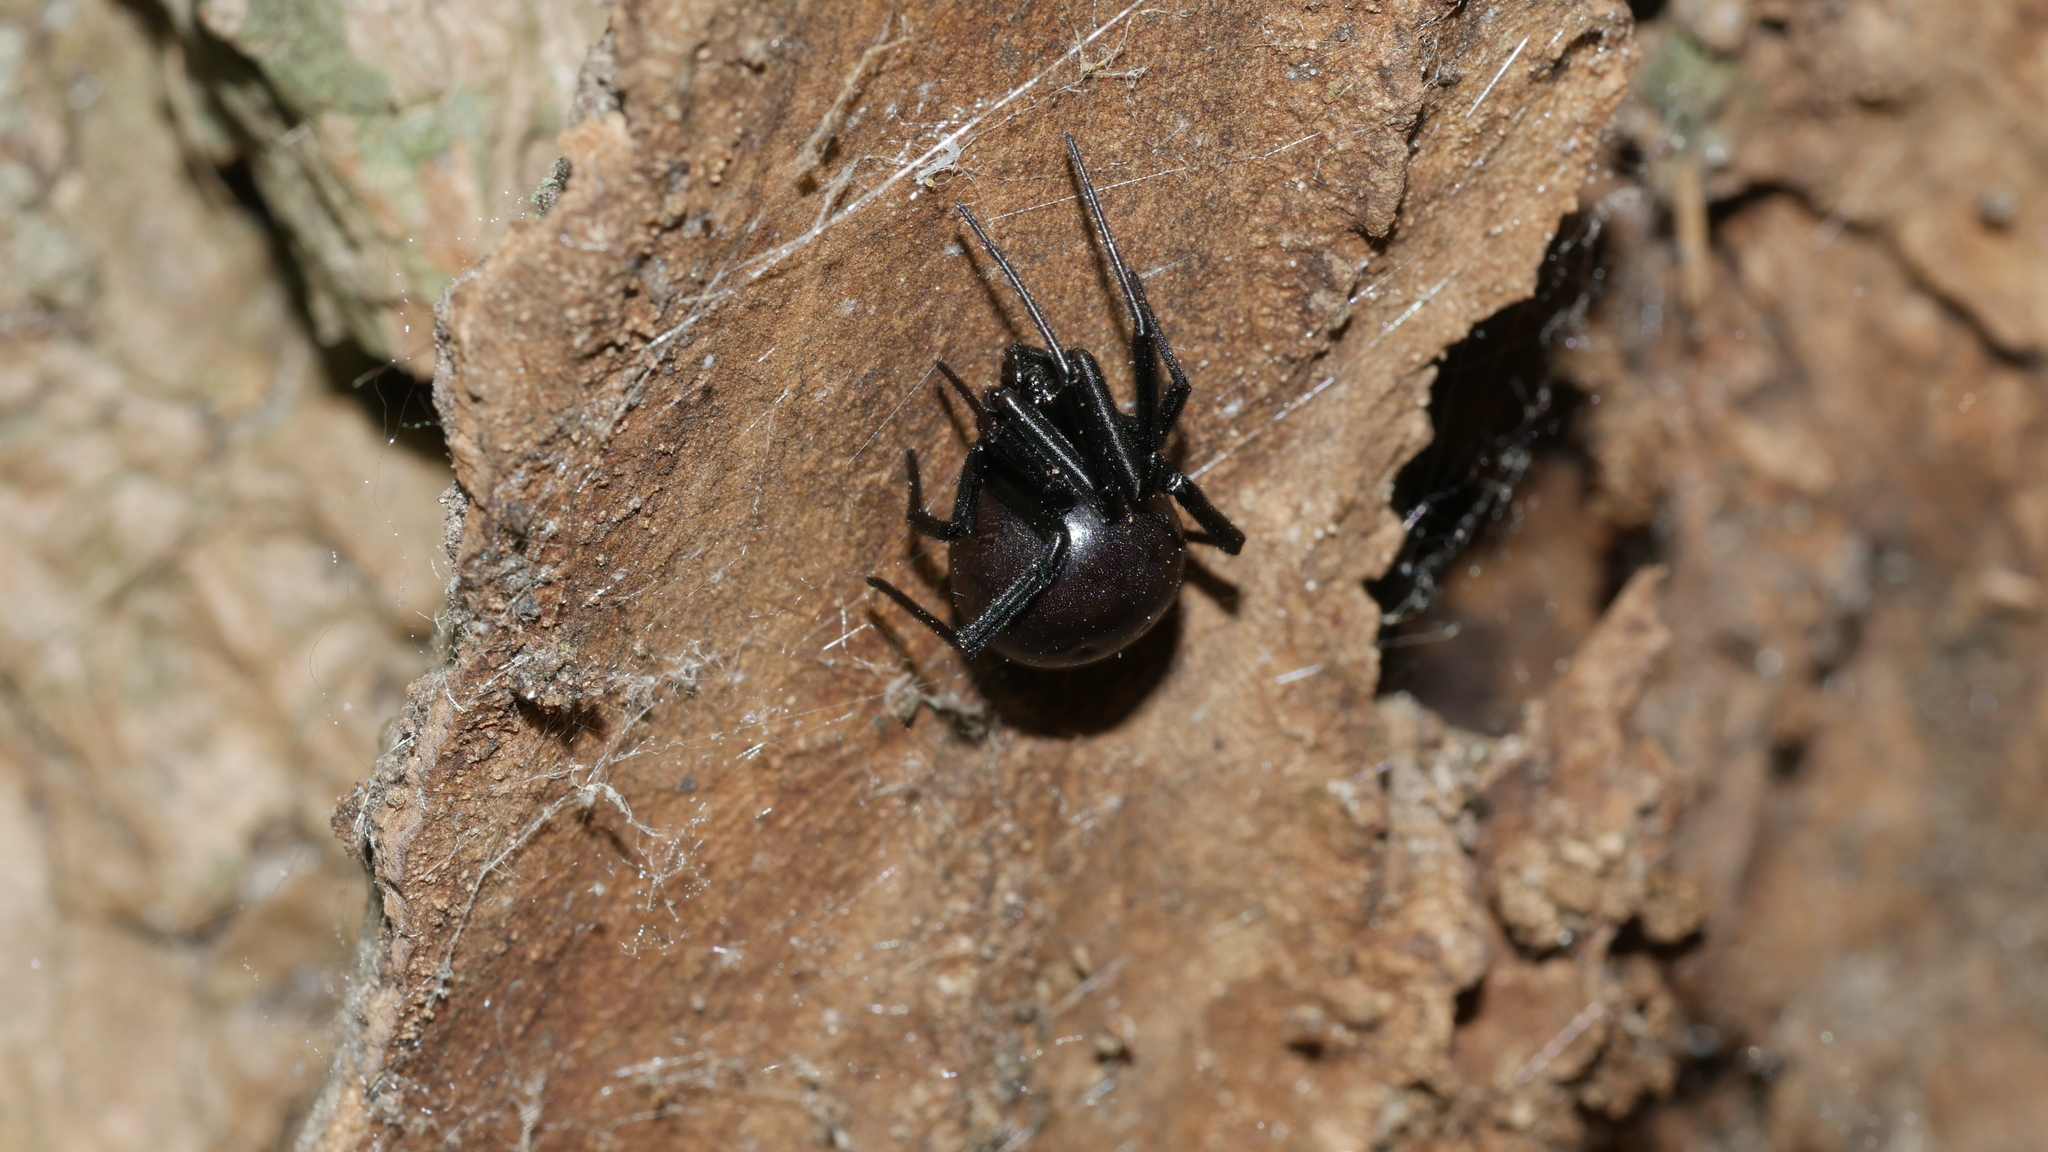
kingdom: Animalia
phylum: Arthropoda
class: Arachnida
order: Araneae
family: Theridiidae
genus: Latrodectus
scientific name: Latrodectus mactans
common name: Cobweb spiders
